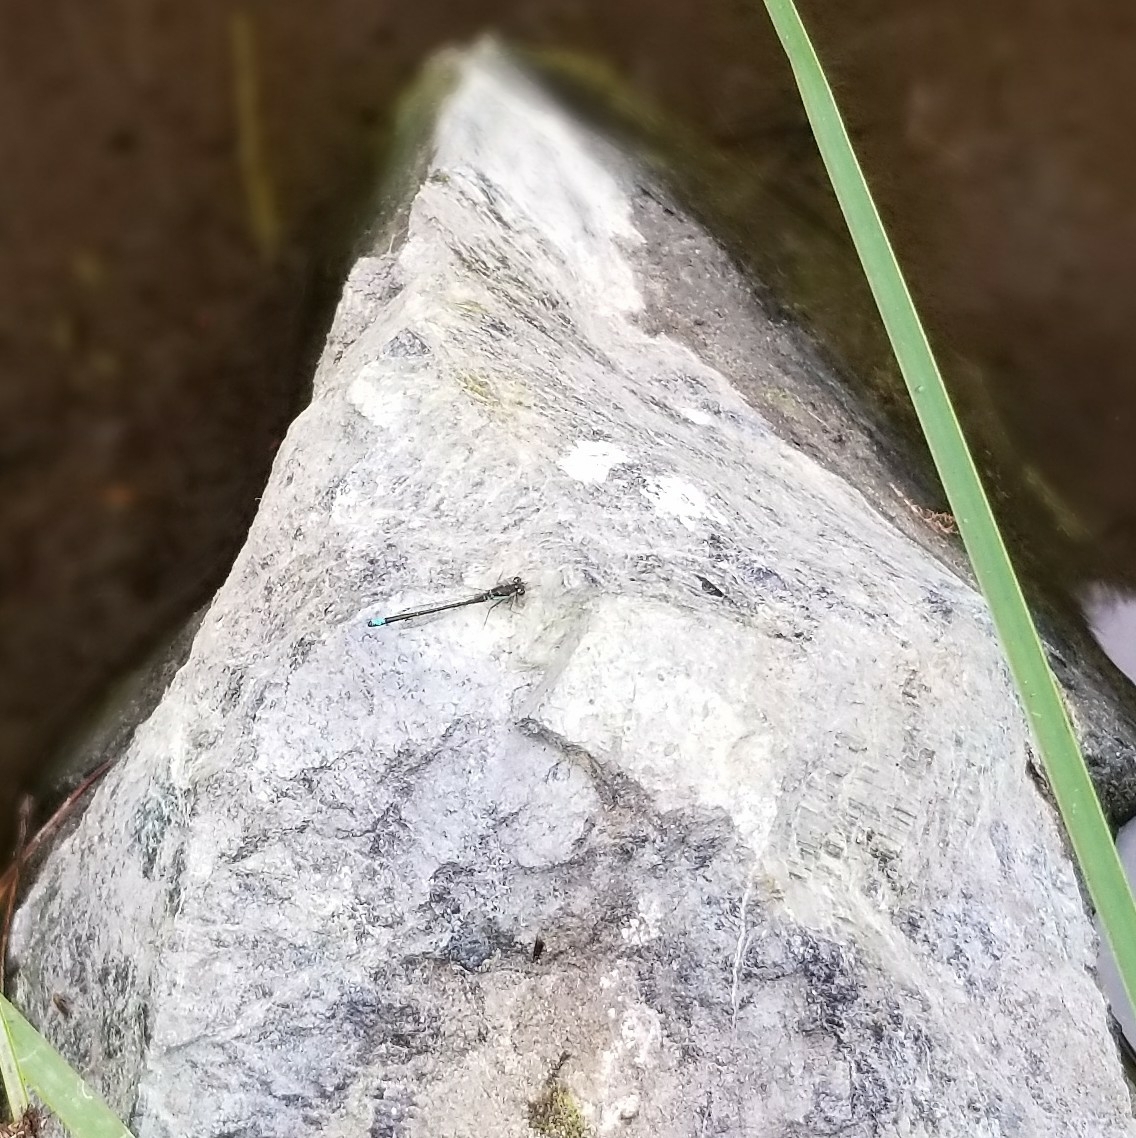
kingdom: Animalia
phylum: Arthropoda
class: Insecta
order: Odonata
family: Coenagrionidae
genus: Ischnura
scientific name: Ischnura gemina
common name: San francisco forktail
